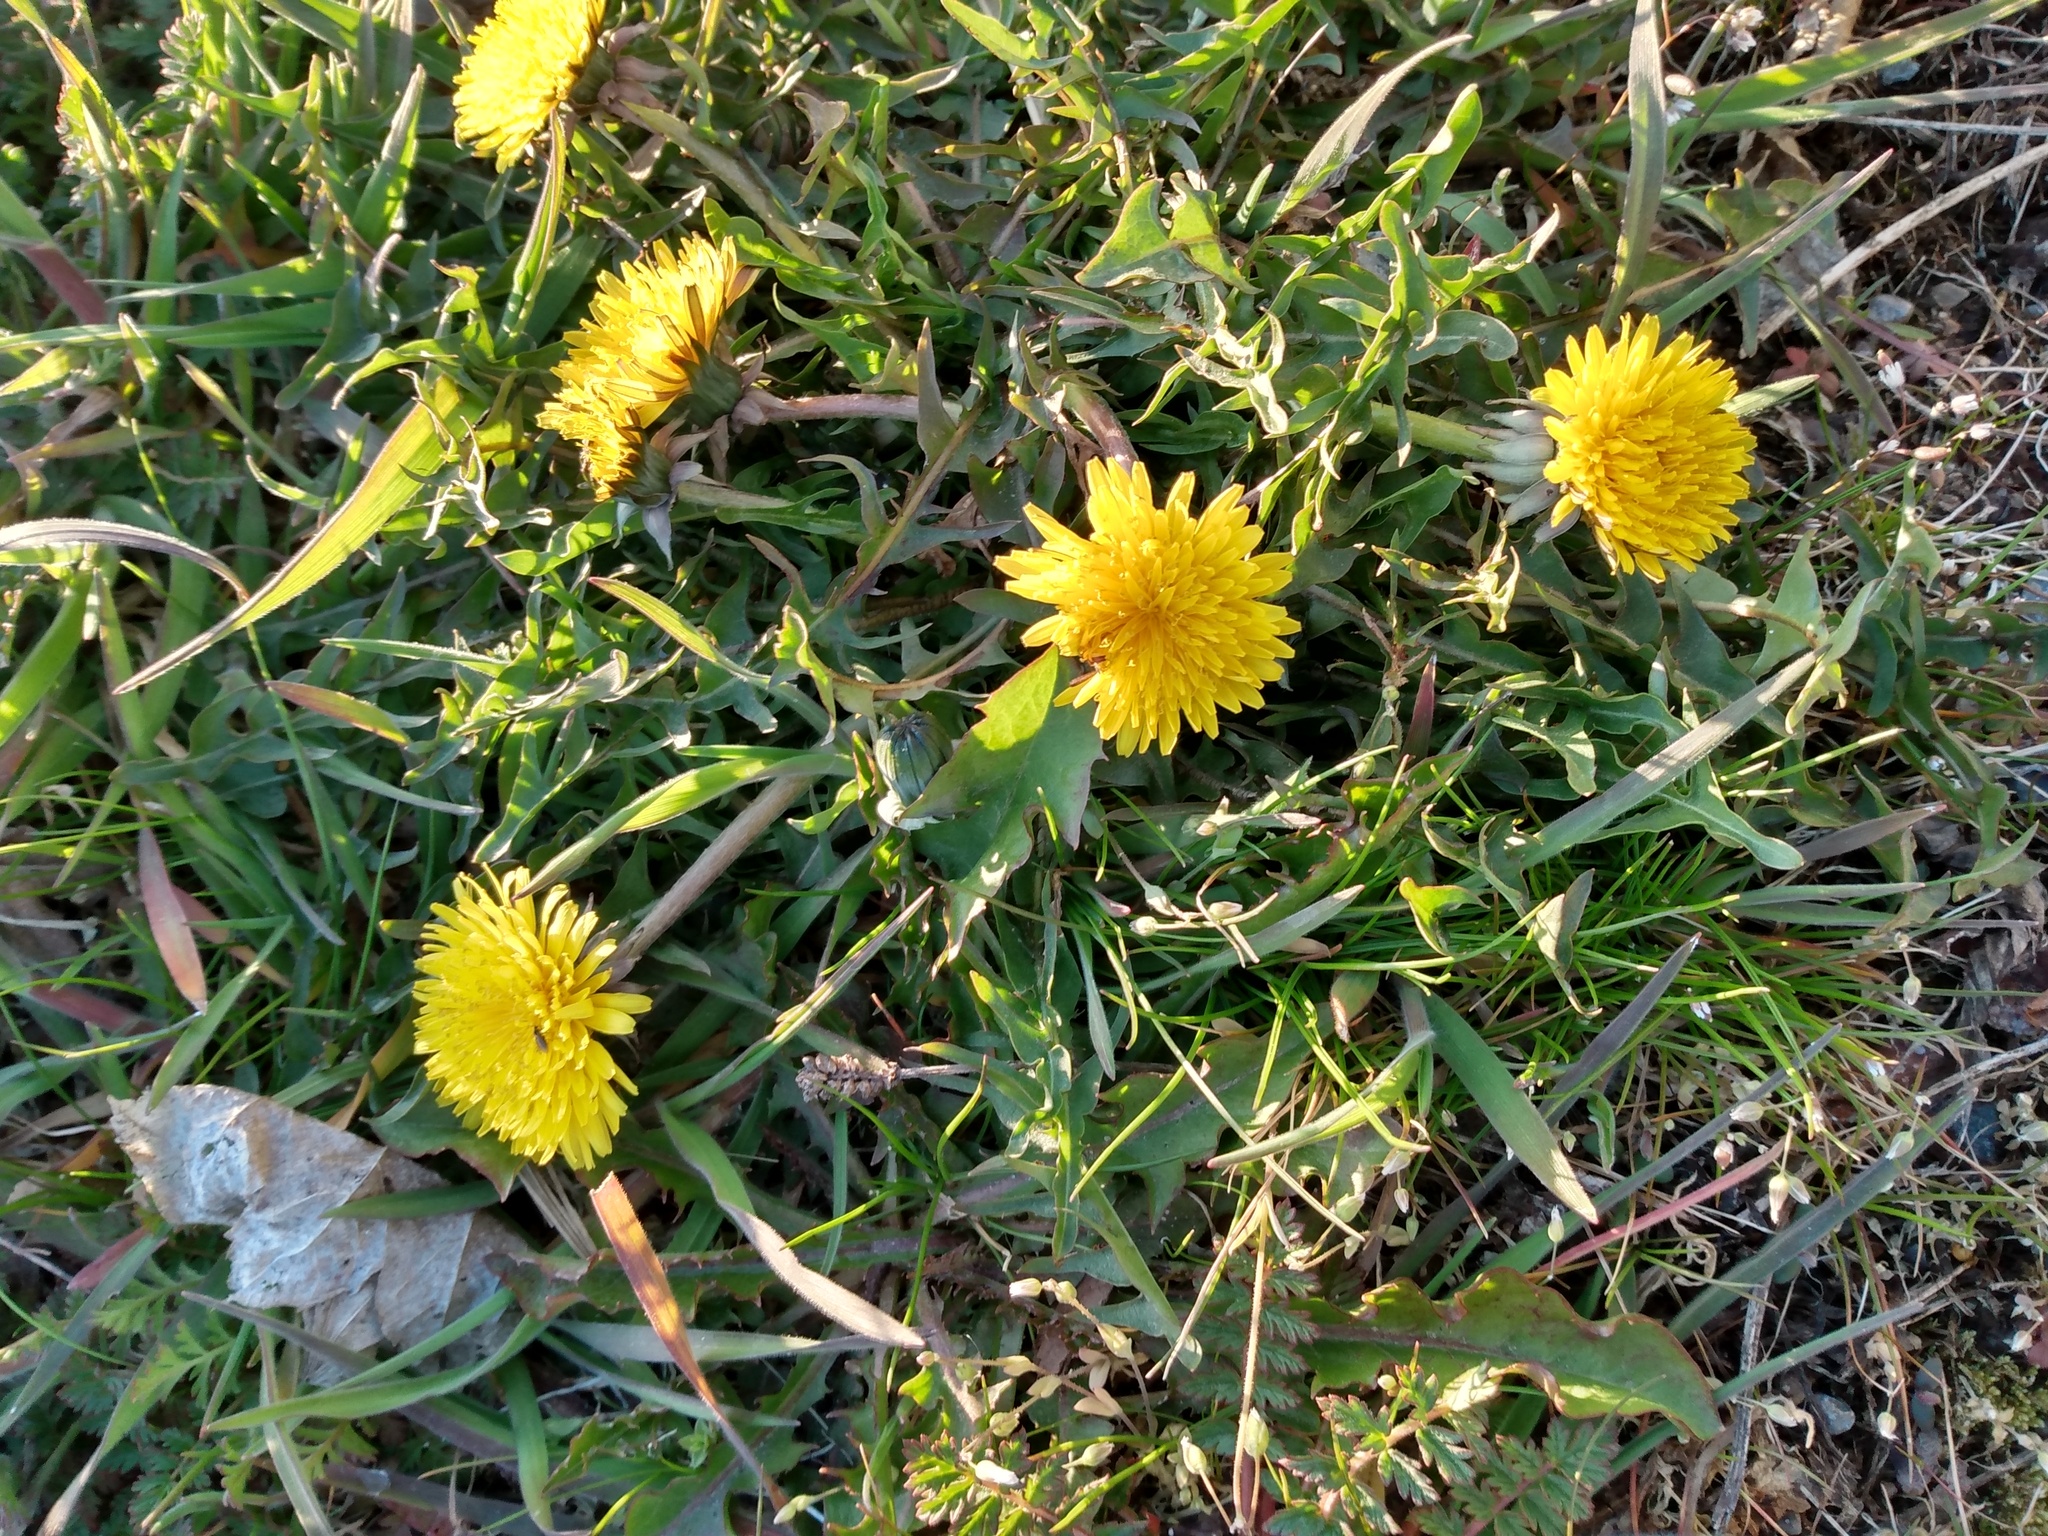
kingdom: Plantae
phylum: Tracheophyta
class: Magnoliopsida
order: Asterales
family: Asteraceae
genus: Taraxacum
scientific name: Taraxacum officinale
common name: Common dandelion
